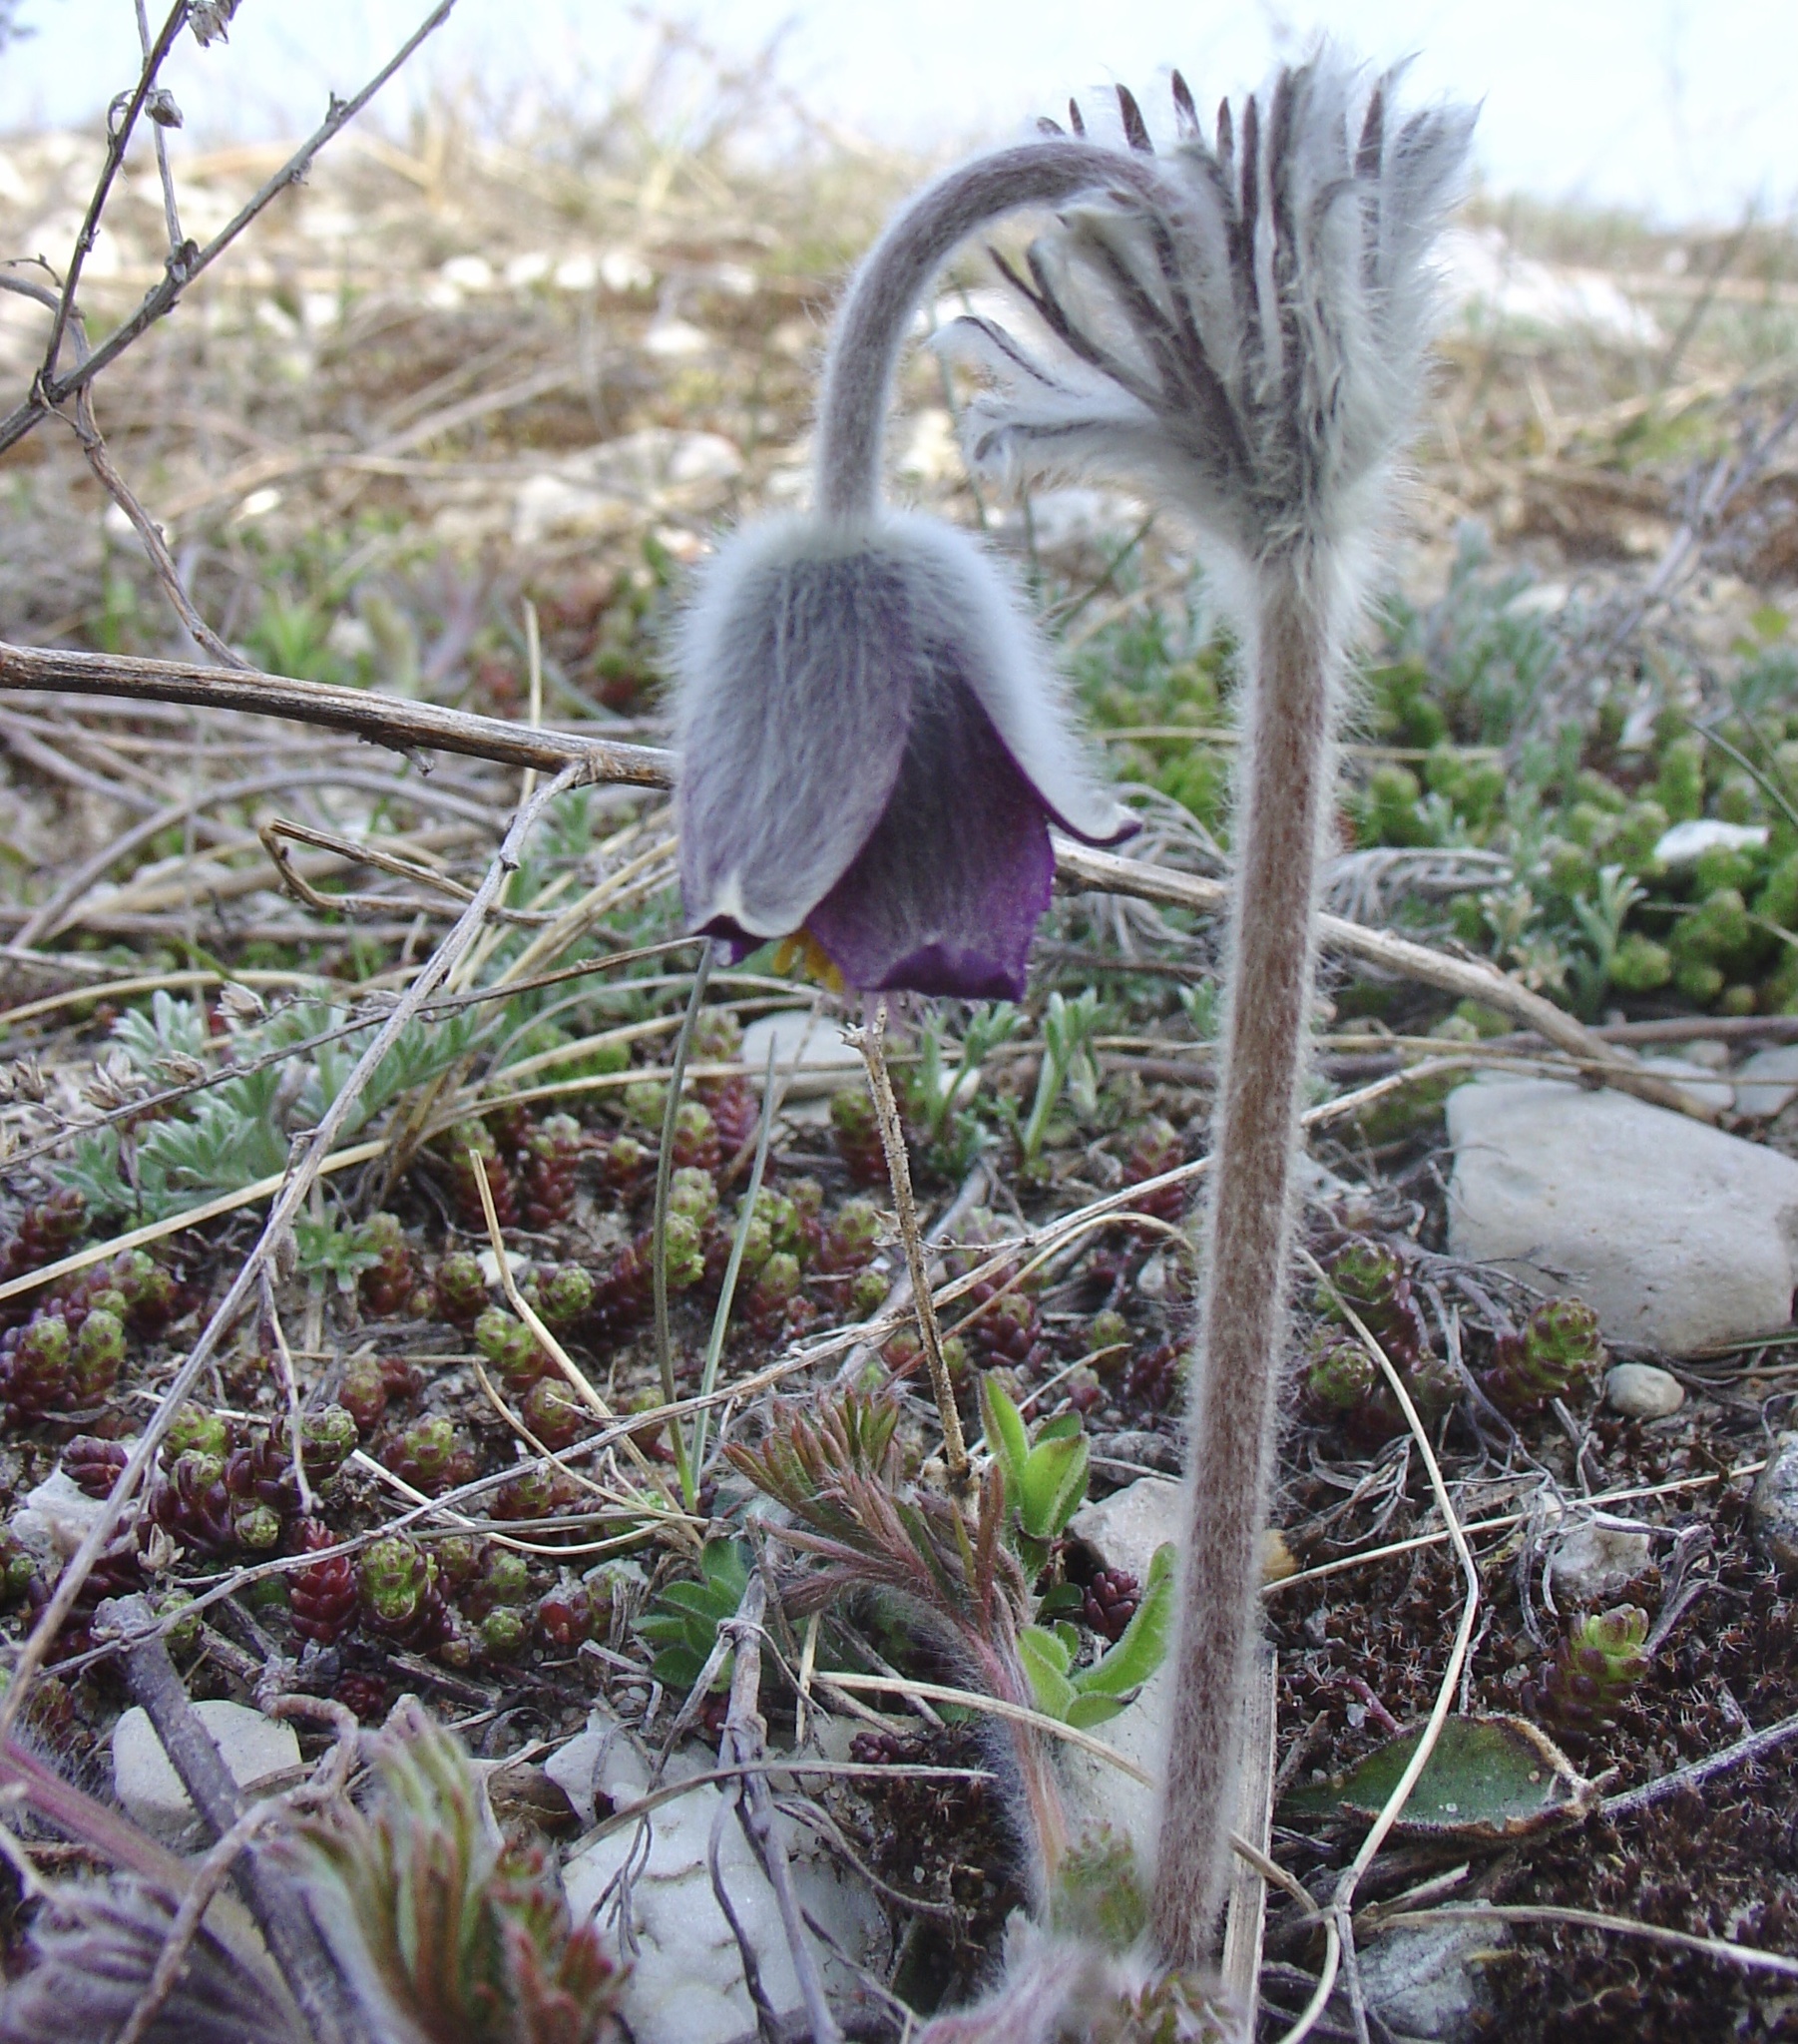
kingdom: Plantae
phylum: Tracheophyta
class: Magnoliopsida
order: Ranunculales
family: Ranunculaceae
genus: Pulsatilla
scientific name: Pulsatilla pratensis
